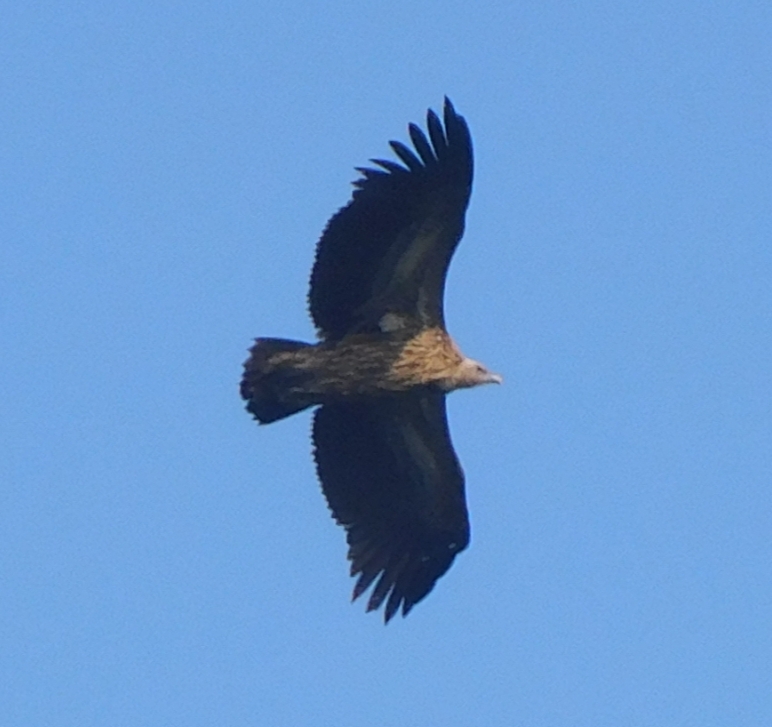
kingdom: Animalia
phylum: Chordata
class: Aves
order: Accipitriformes
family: Accipitridae
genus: Gyps
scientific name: Gyps himalayensis
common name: Himalayan griffon
